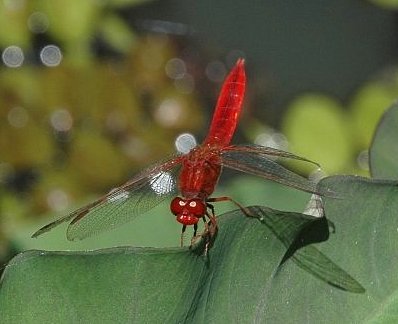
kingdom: Animalia
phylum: Arthropoda
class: Insecta
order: Odonata
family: Libellulidae
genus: Crocothemis
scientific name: Crocothemis erythraea
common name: Scarlet dragonfly
